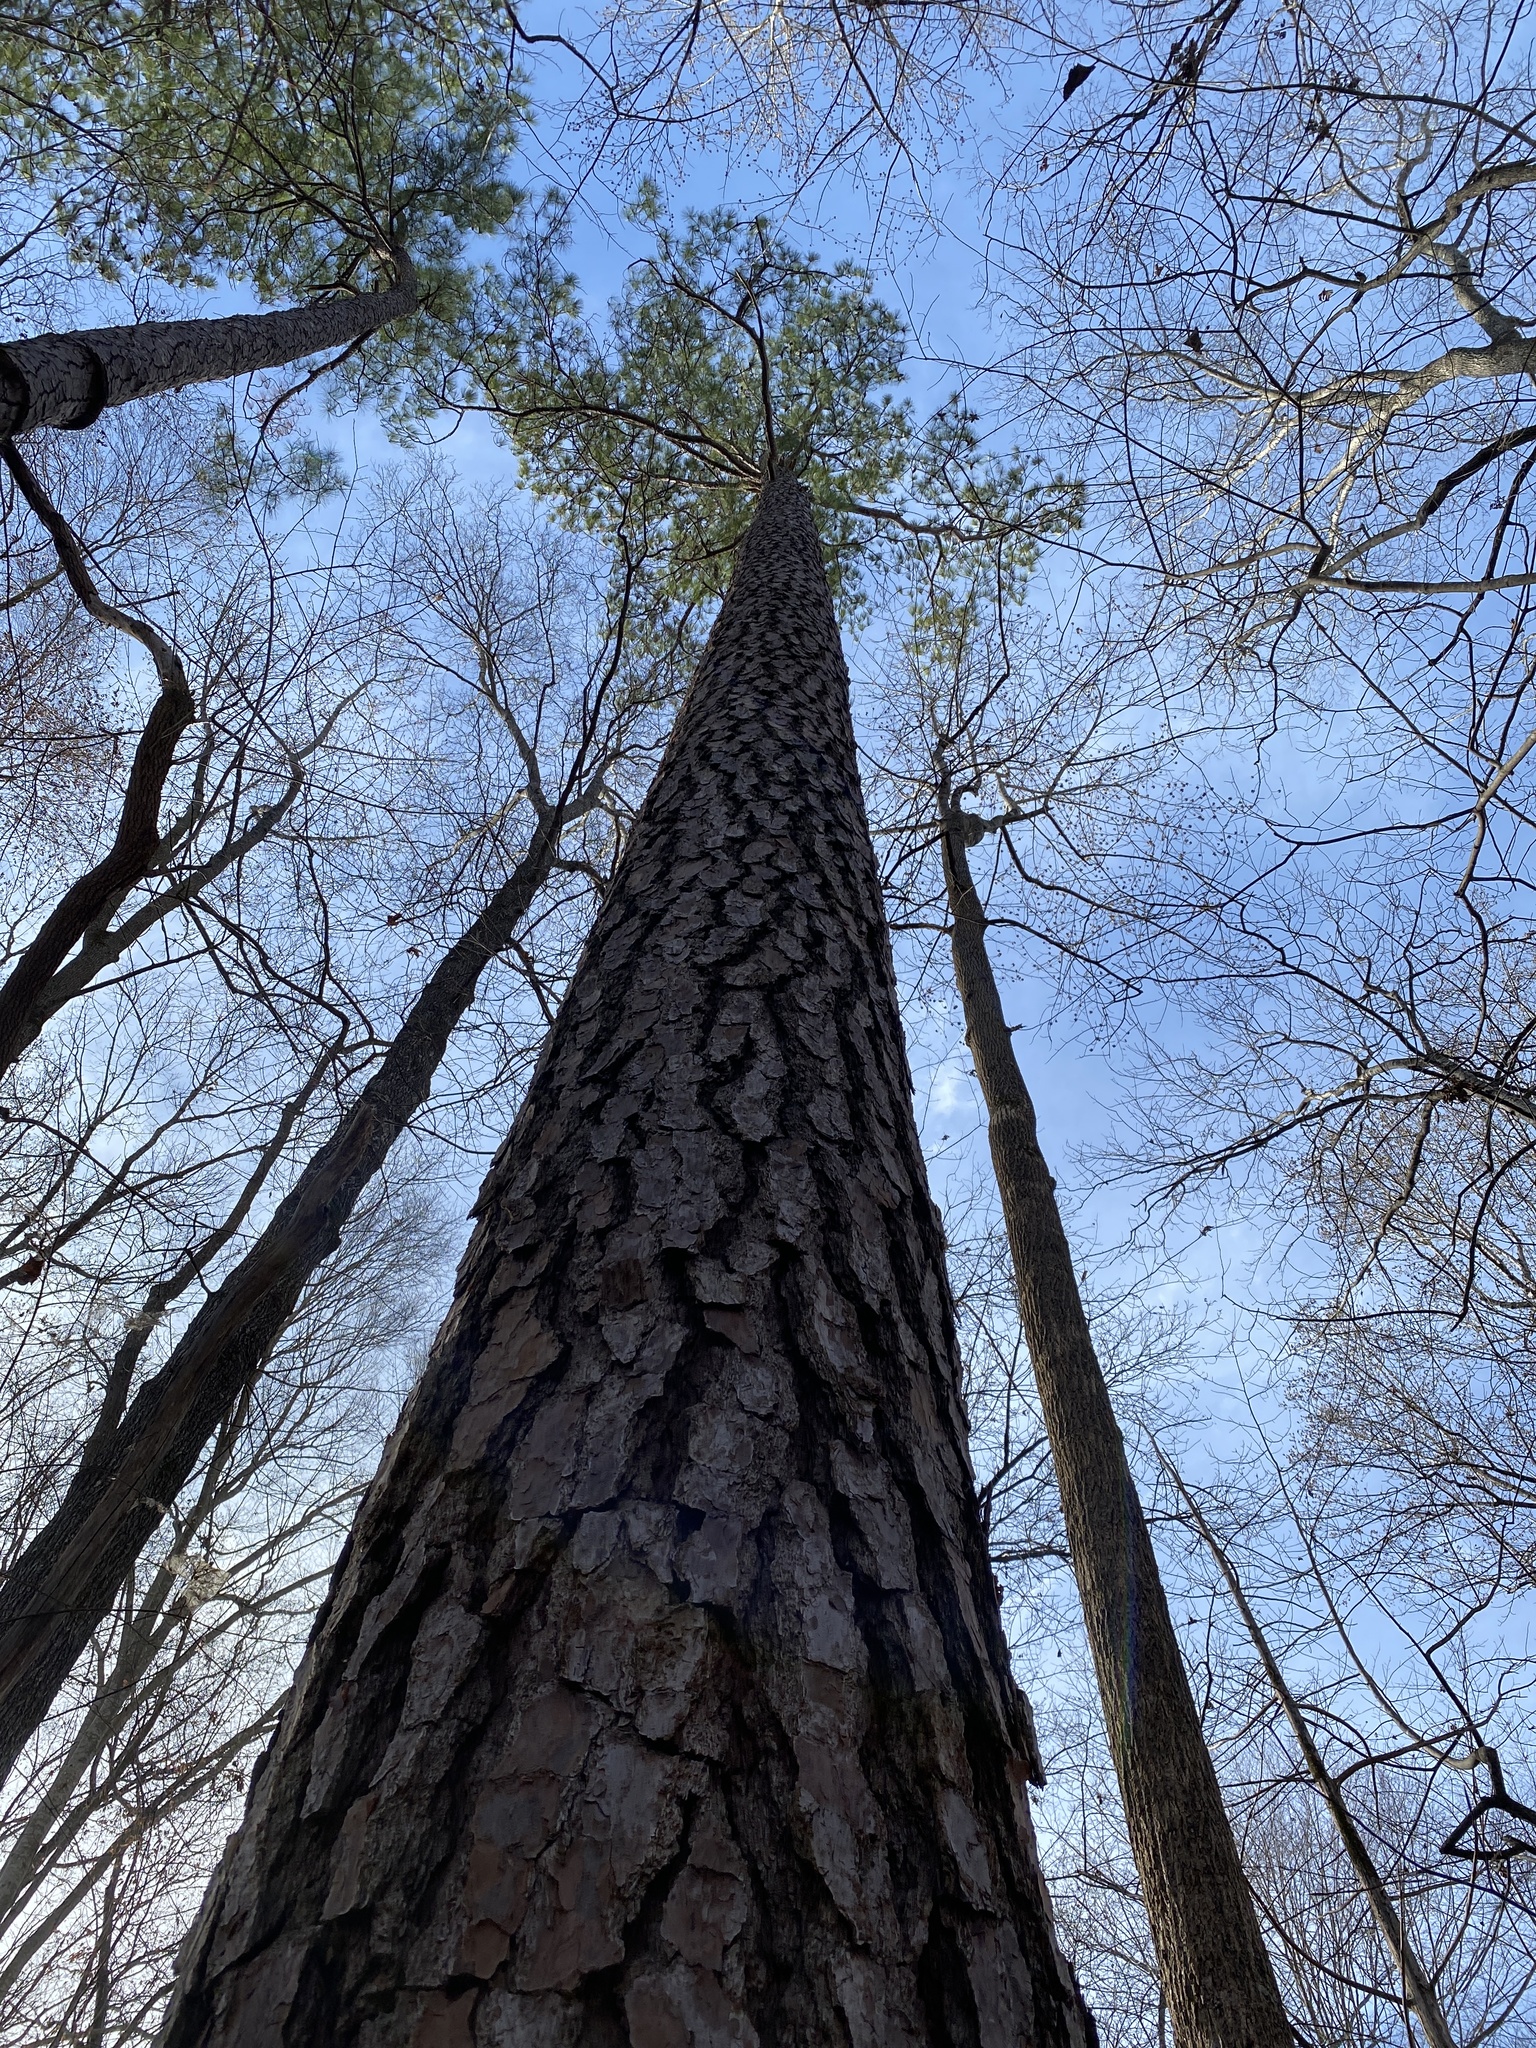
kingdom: Plantae
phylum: Tracheophyta
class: Pinopsida
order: Pinales
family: Pinaceae
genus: Pinus
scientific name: Pinus taeda
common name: Loblolly pine
